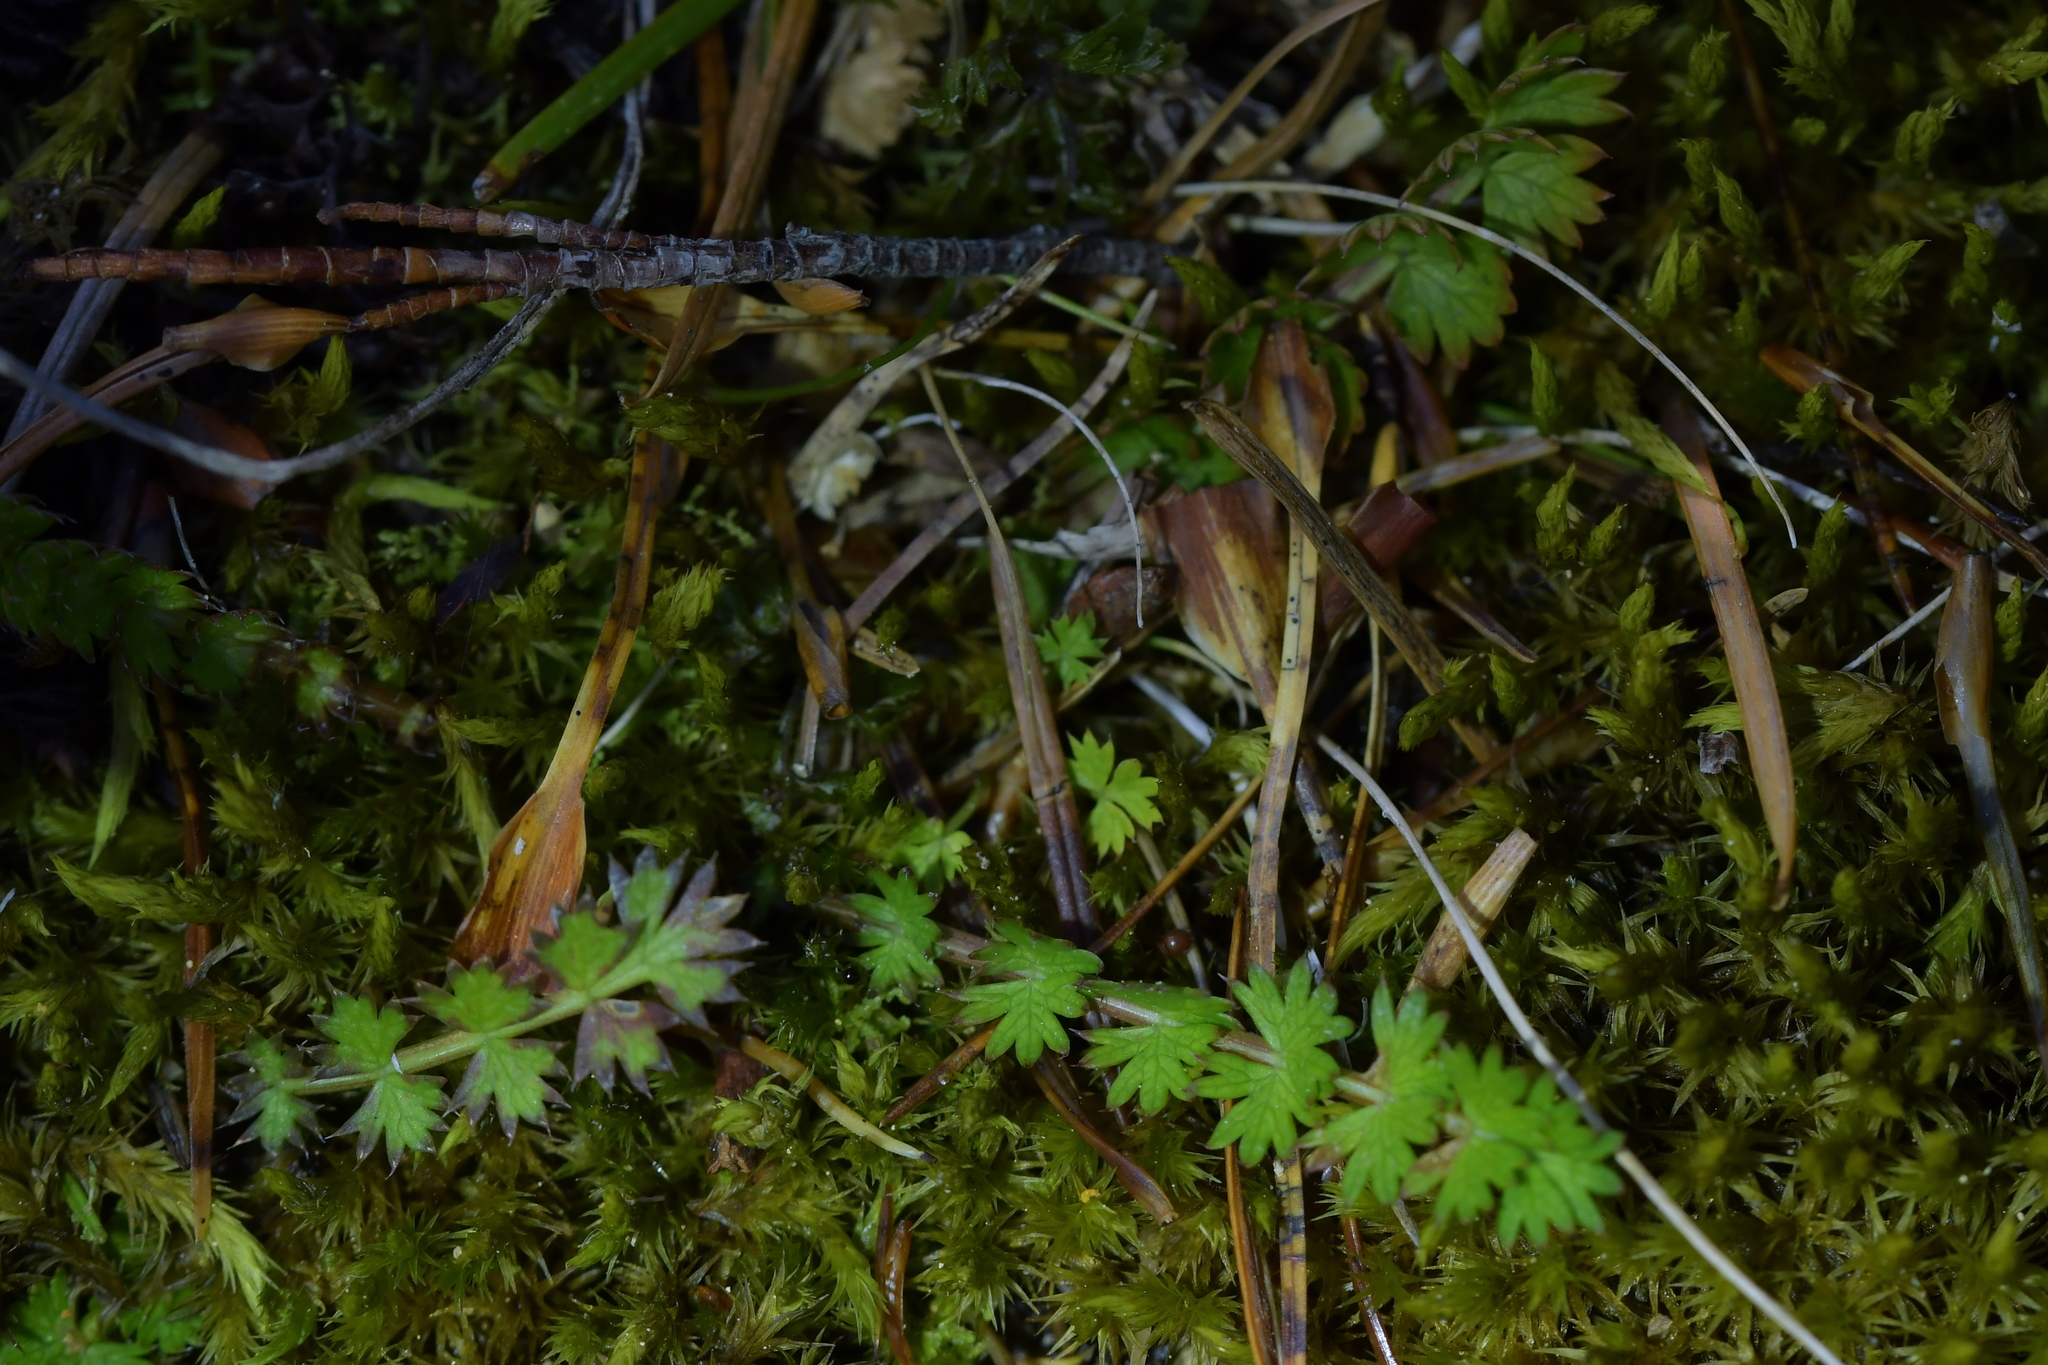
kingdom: Plantae
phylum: Tracheophyta
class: Magnoliopsida
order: Apiales
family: Apiaceae
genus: Anisotome
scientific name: Anisotome aromatica
